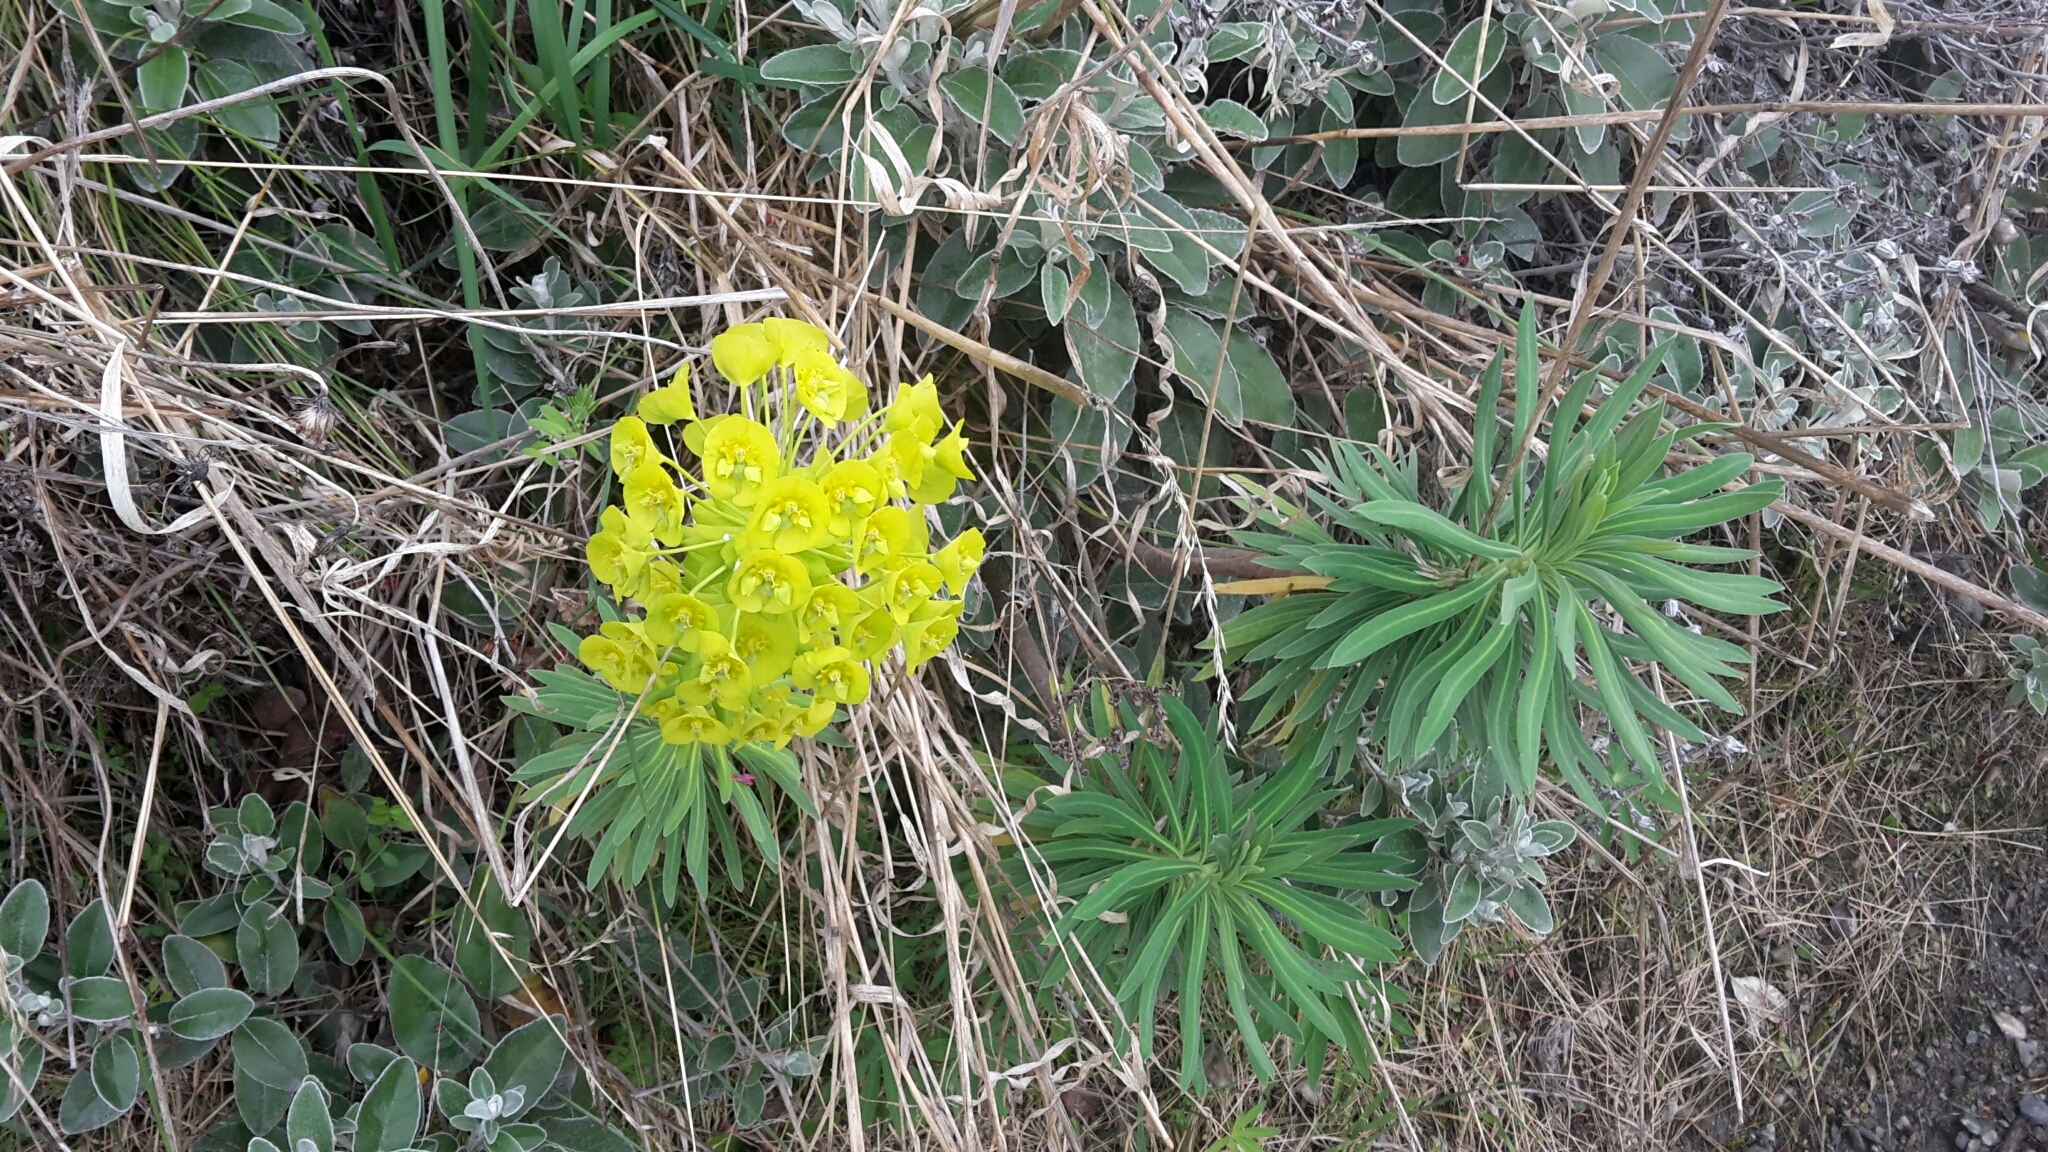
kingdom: Plantae
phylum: Tracheophyta
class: Magnoliopsida
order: Malpighiales
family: Euphorbiaceae
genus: Euphorbia
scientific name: Euphorbia characias
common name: Mediterranean spurge
